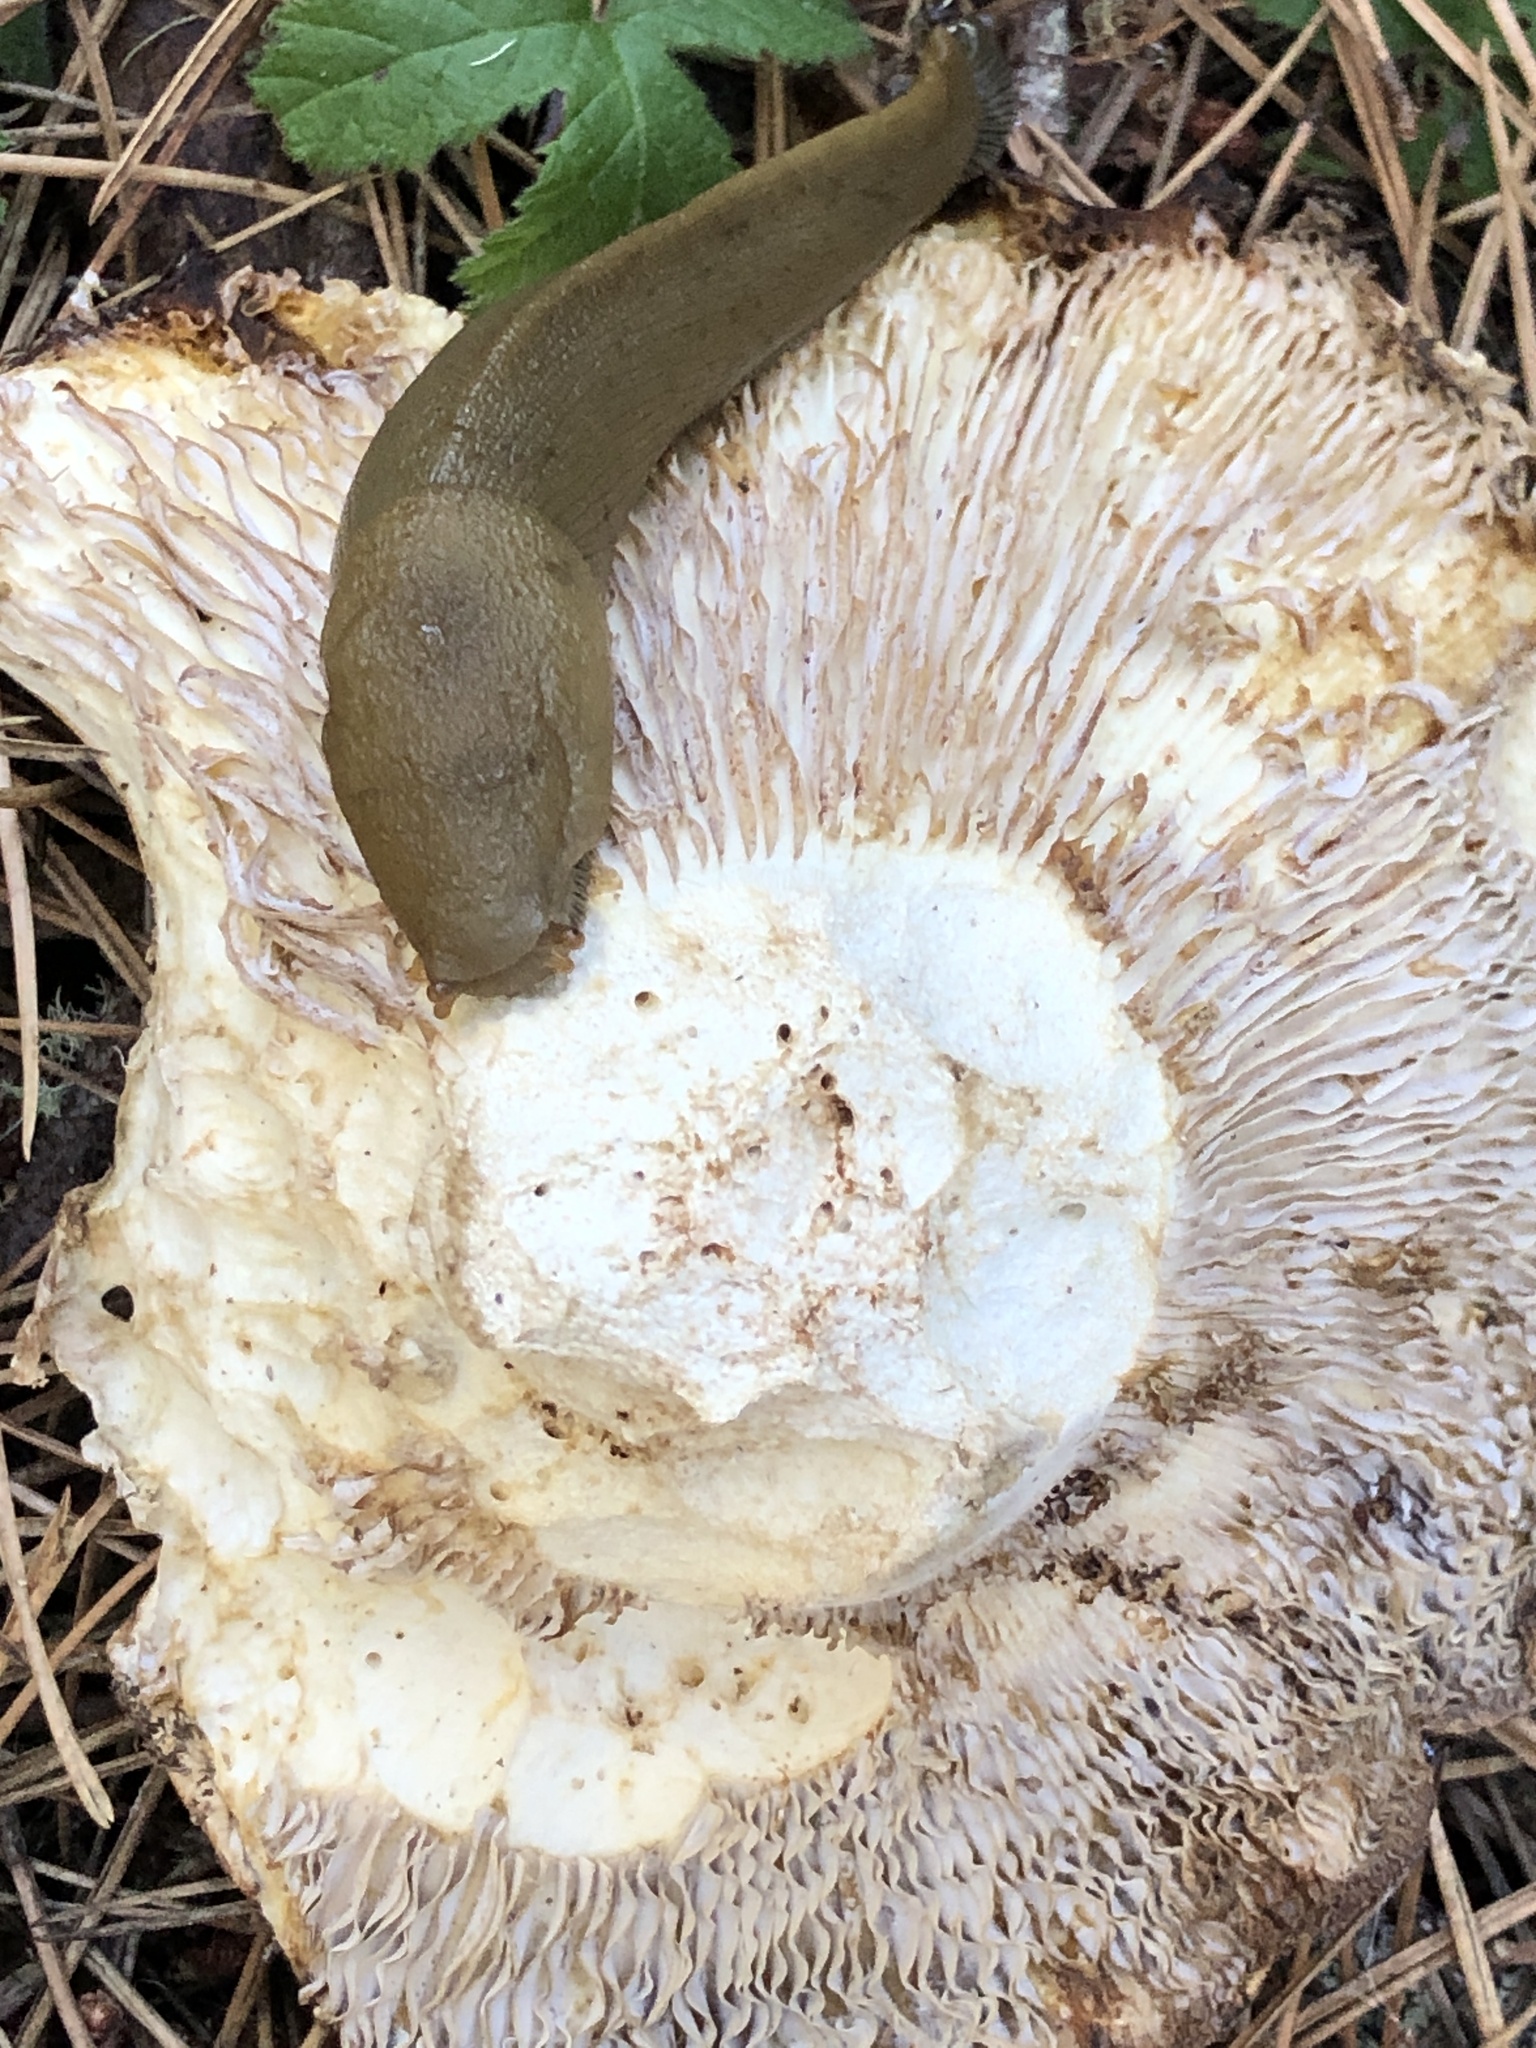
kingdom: Animalia
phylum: Mollusca
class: Gastropoda
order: Stylommatophora
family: Ariolimacidae
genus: Ariolimax
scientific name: Ariolimax buttoni
